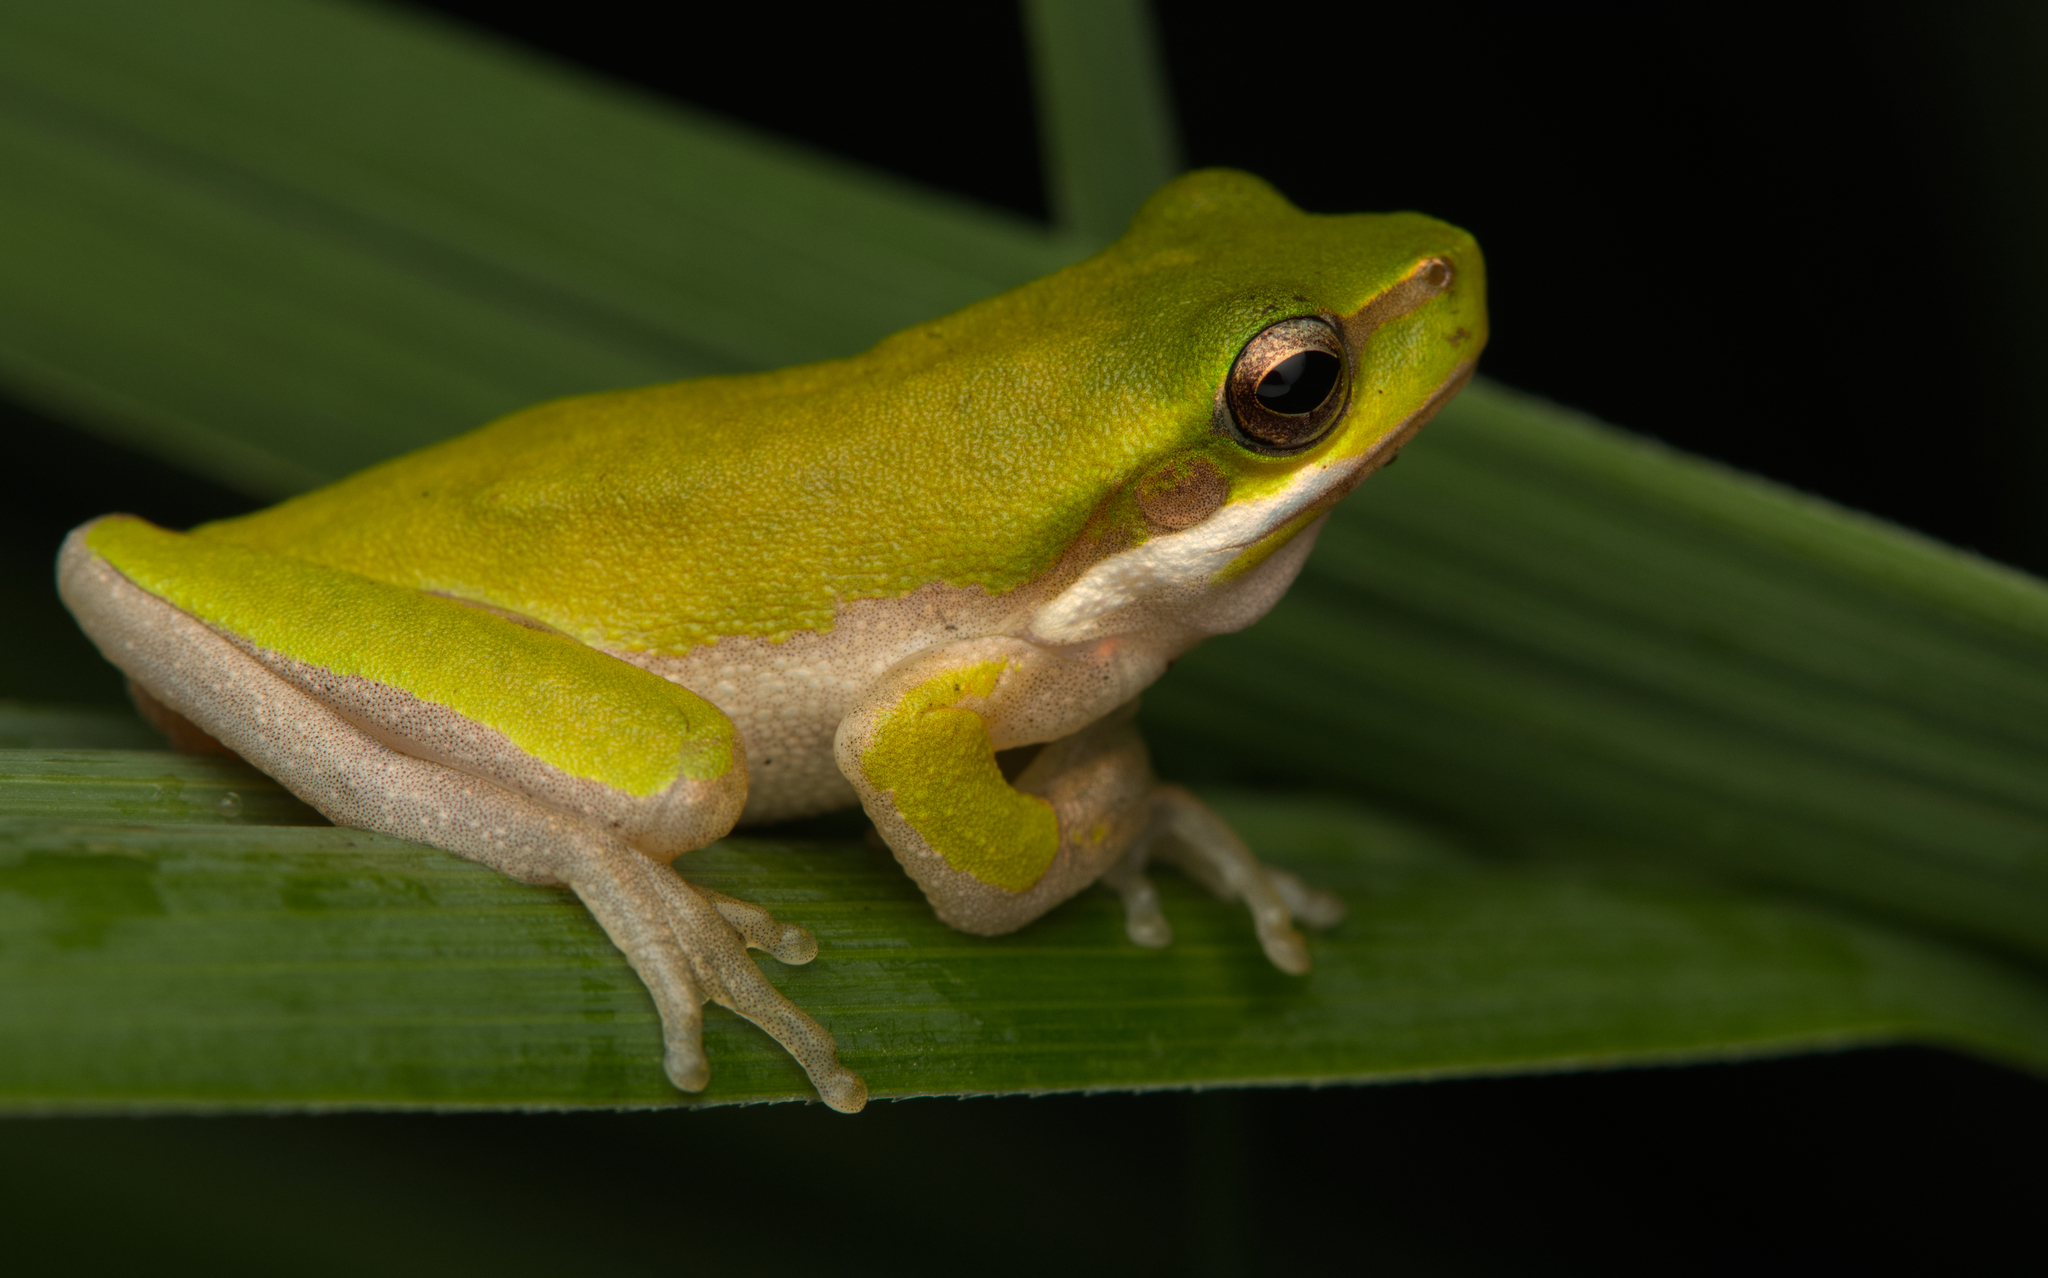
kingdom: Animalia
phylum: Chordata
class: Amphibia
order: Anura
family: Pelodryadidae
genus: Litoria
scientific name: Litoria fallax
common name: Eastern dwarf treefrog
